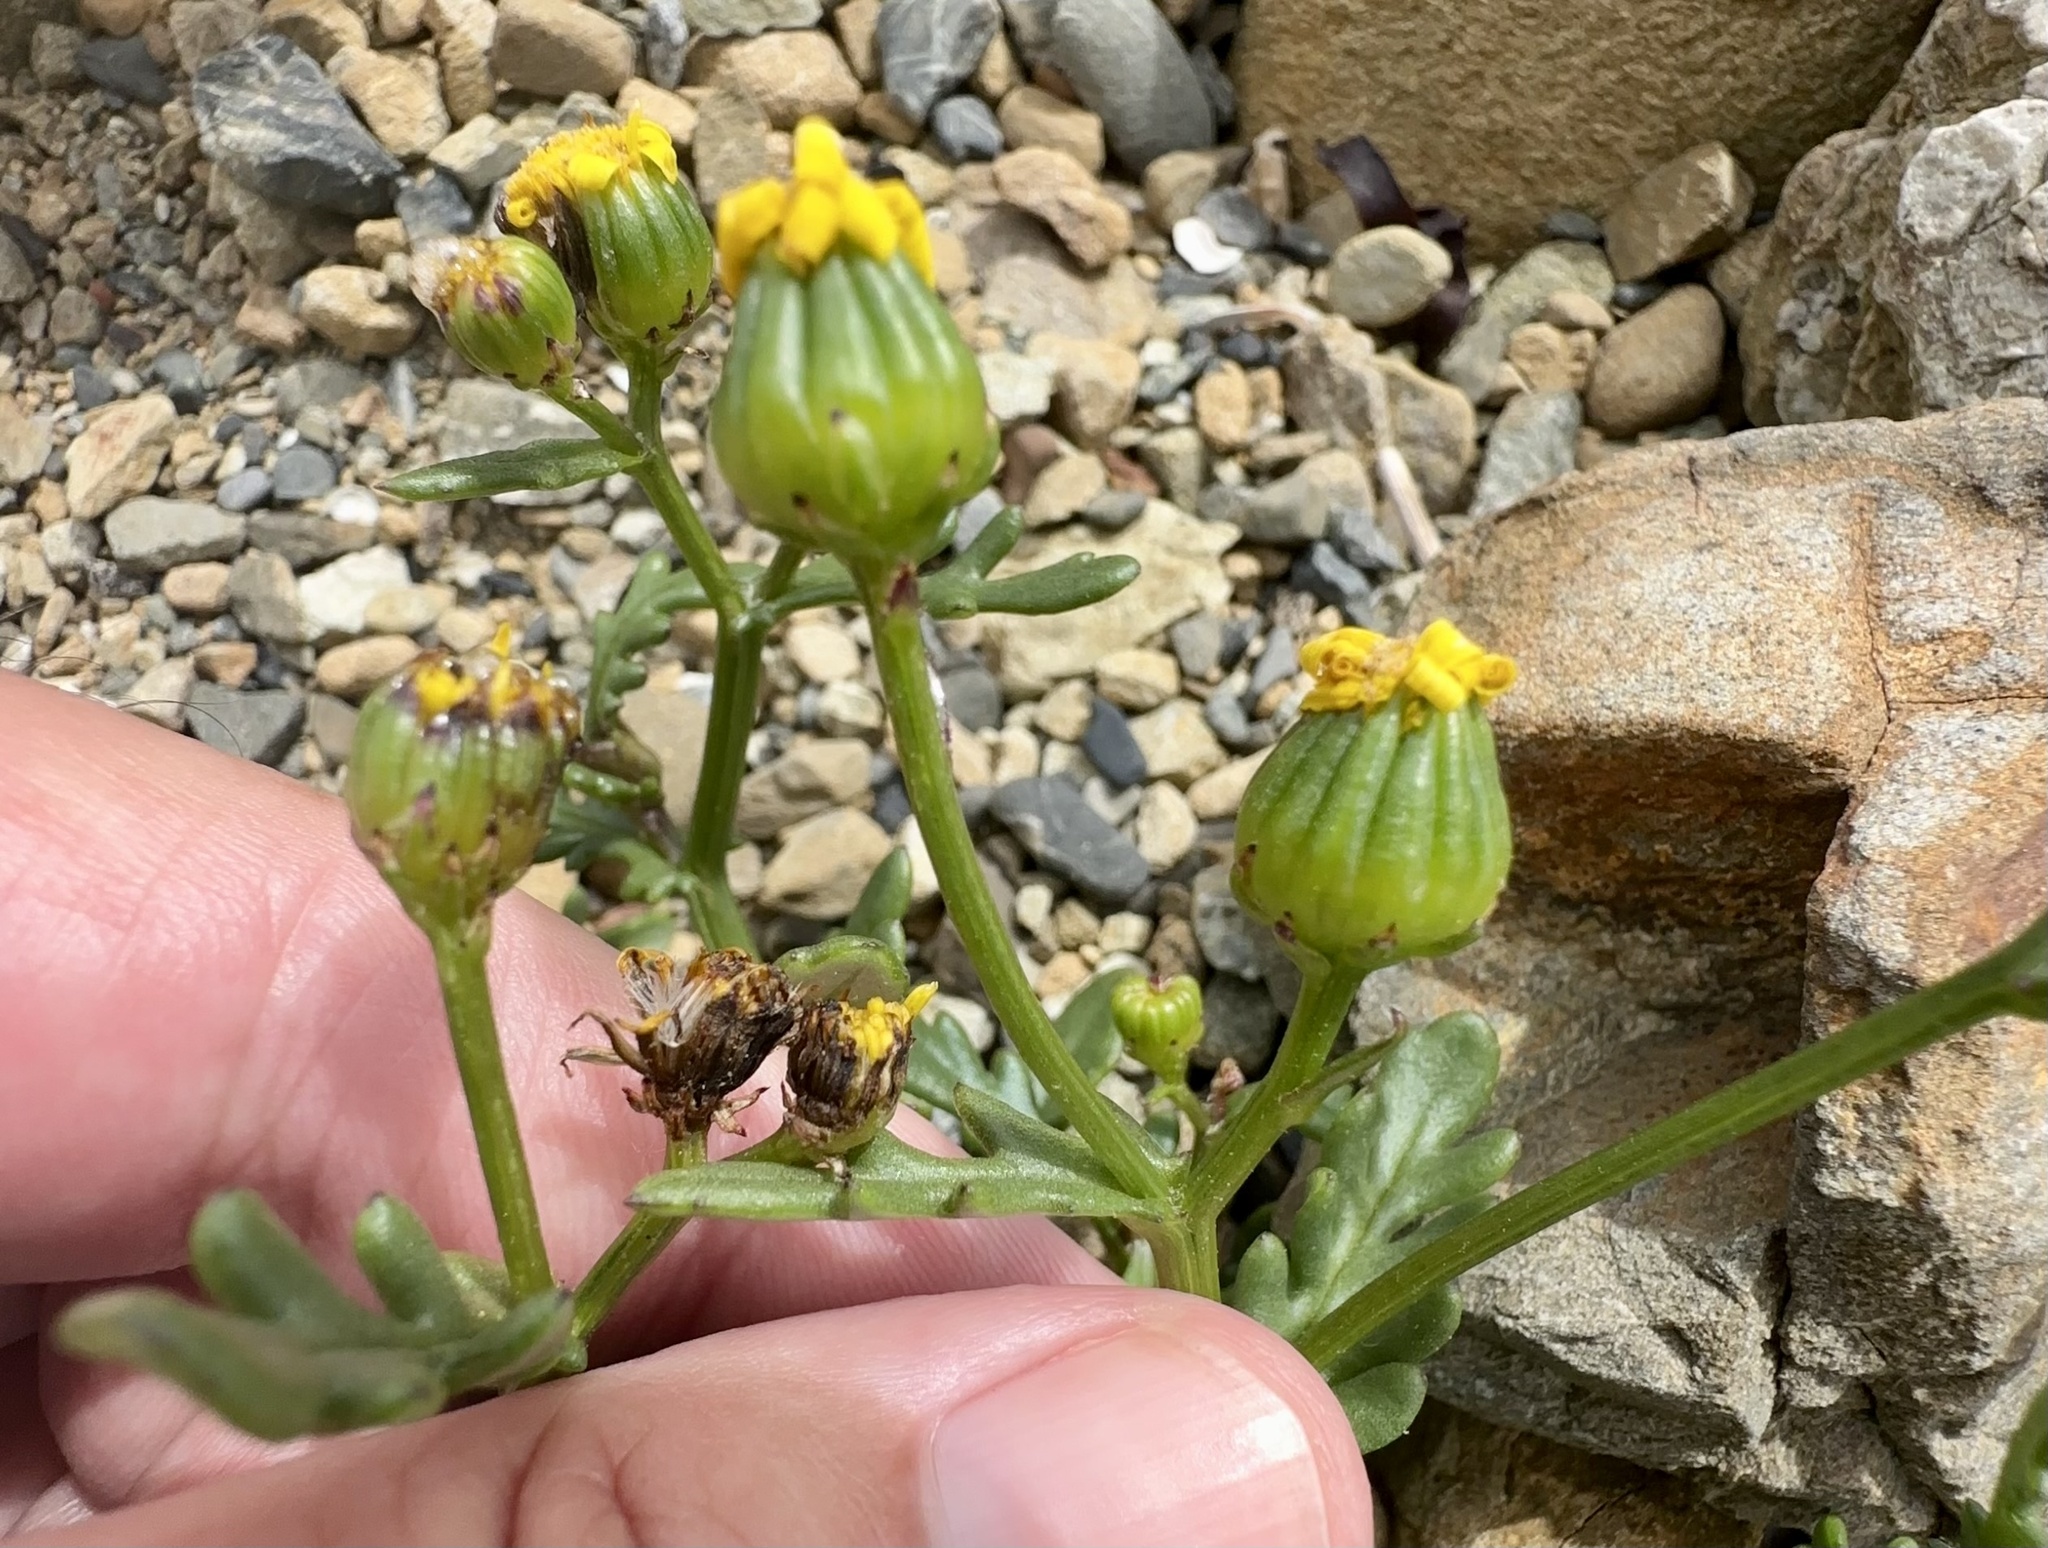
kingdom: Plantae
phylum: Tracheophyta
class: Magnoliopsida
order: Asterales
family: Asteraceae
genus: Senecio
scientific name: Senecio lautus
